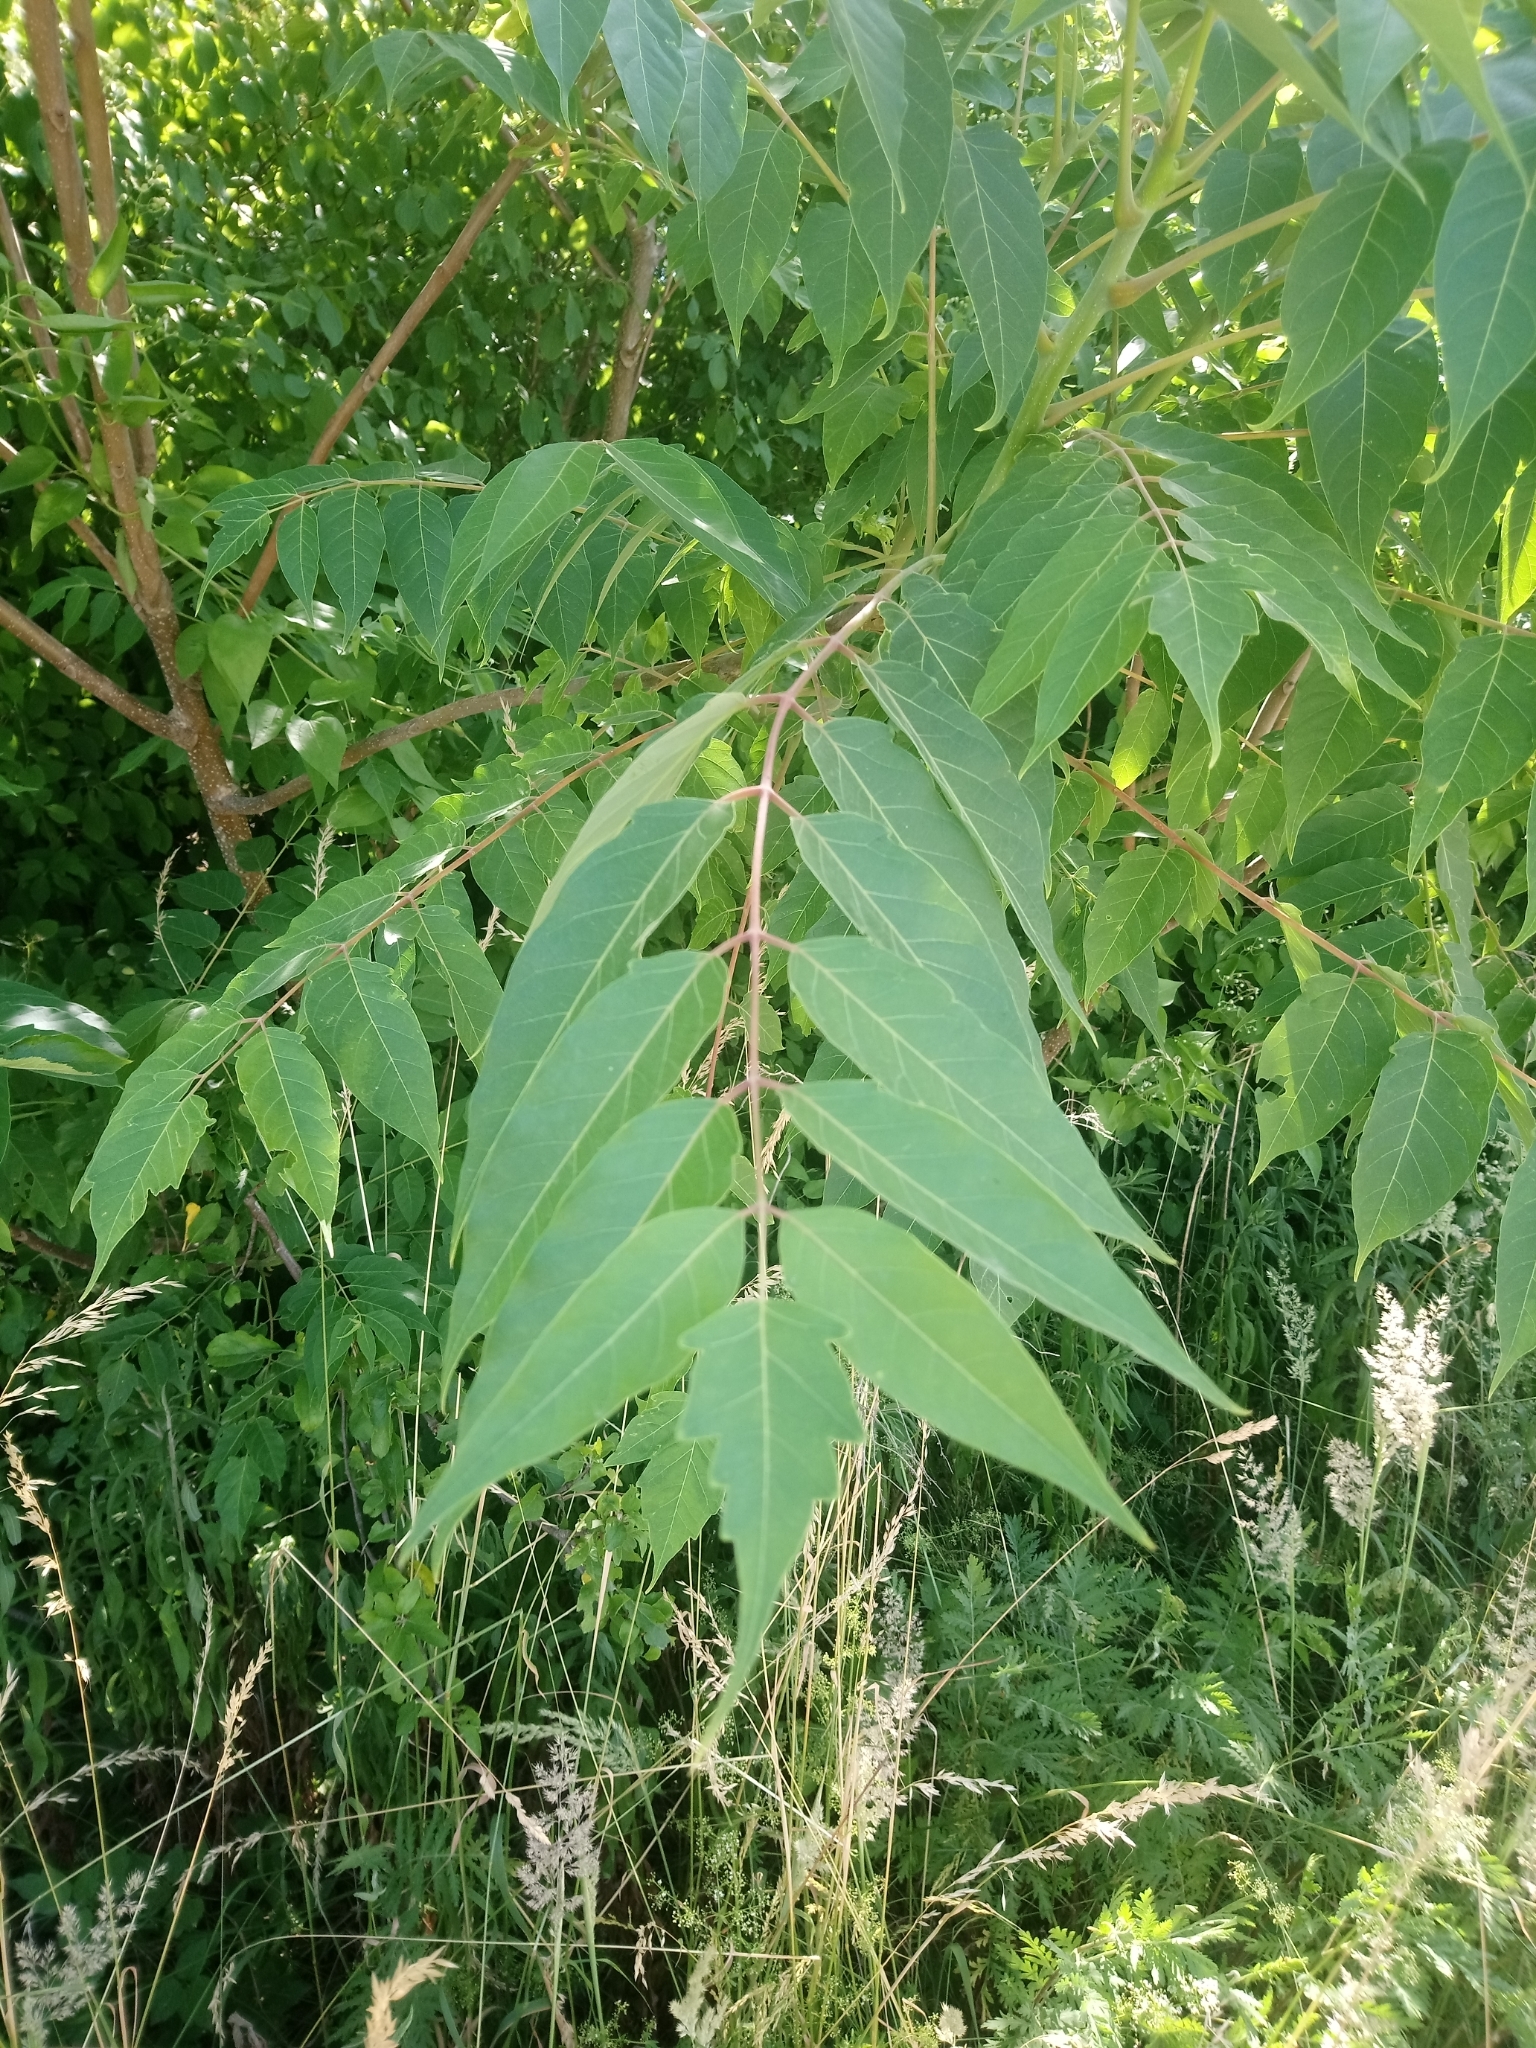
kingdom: Plantae
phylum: Tracheophyta
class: Magnoliopsida
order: Sapindales
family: Simaroubaceae
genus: Ailanthus
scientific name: Ailanthus altissima
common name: Tree-of-heaven
